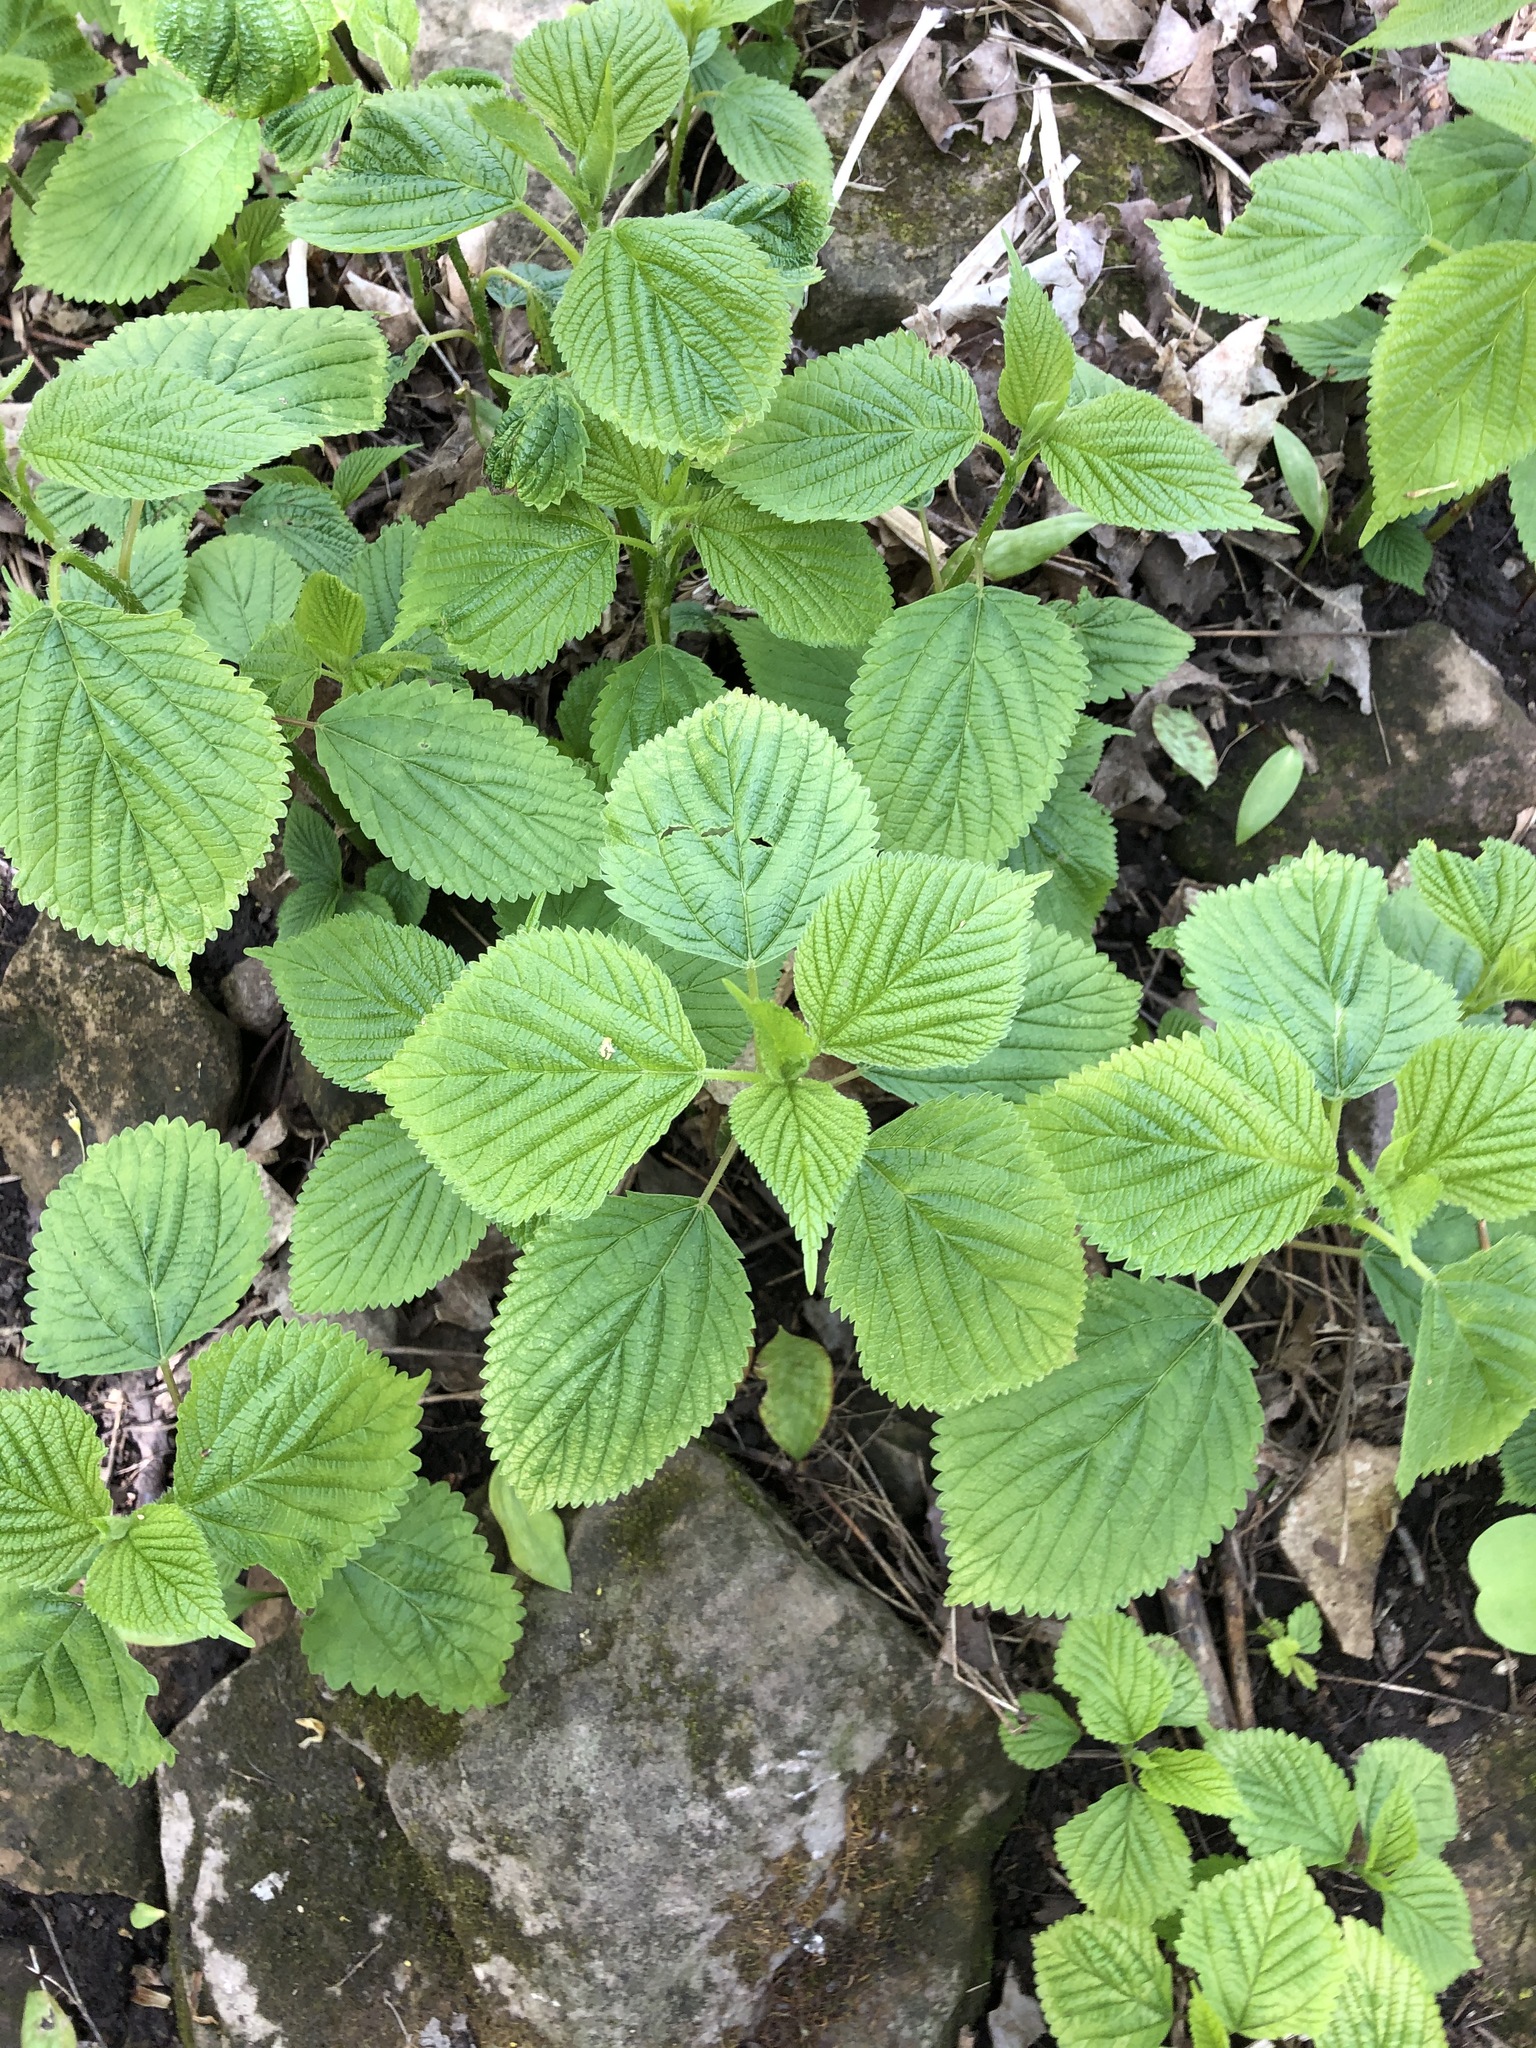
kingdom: Plantae
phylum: Tracheophyta
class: Magnoliopsida
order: Rosales
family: Urticaceae
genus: Laportea
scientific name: Laportea canadensis
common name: Canada nettle
